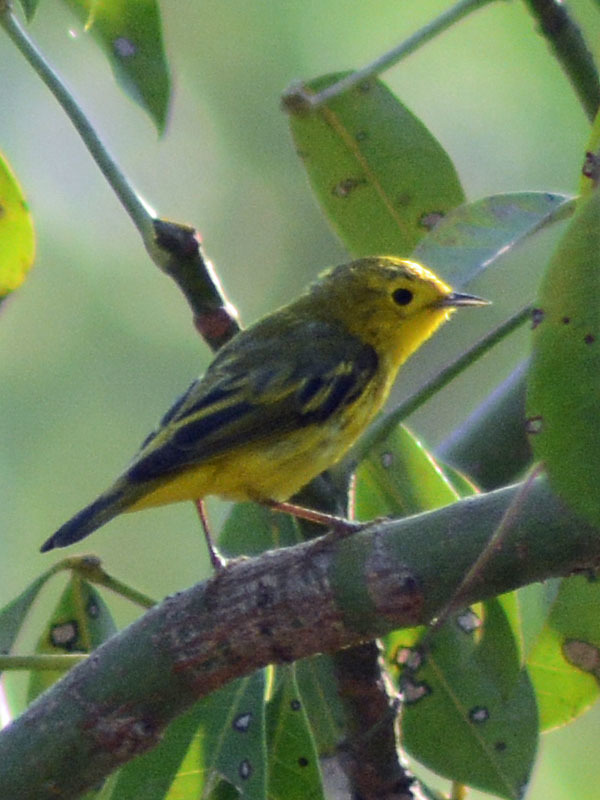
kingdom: Animalia
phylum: Chordata
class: Aves
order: Passeriformes
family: Parulidae
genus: Setophaga
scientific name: Setophaga petechia
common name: Yellow warbler
